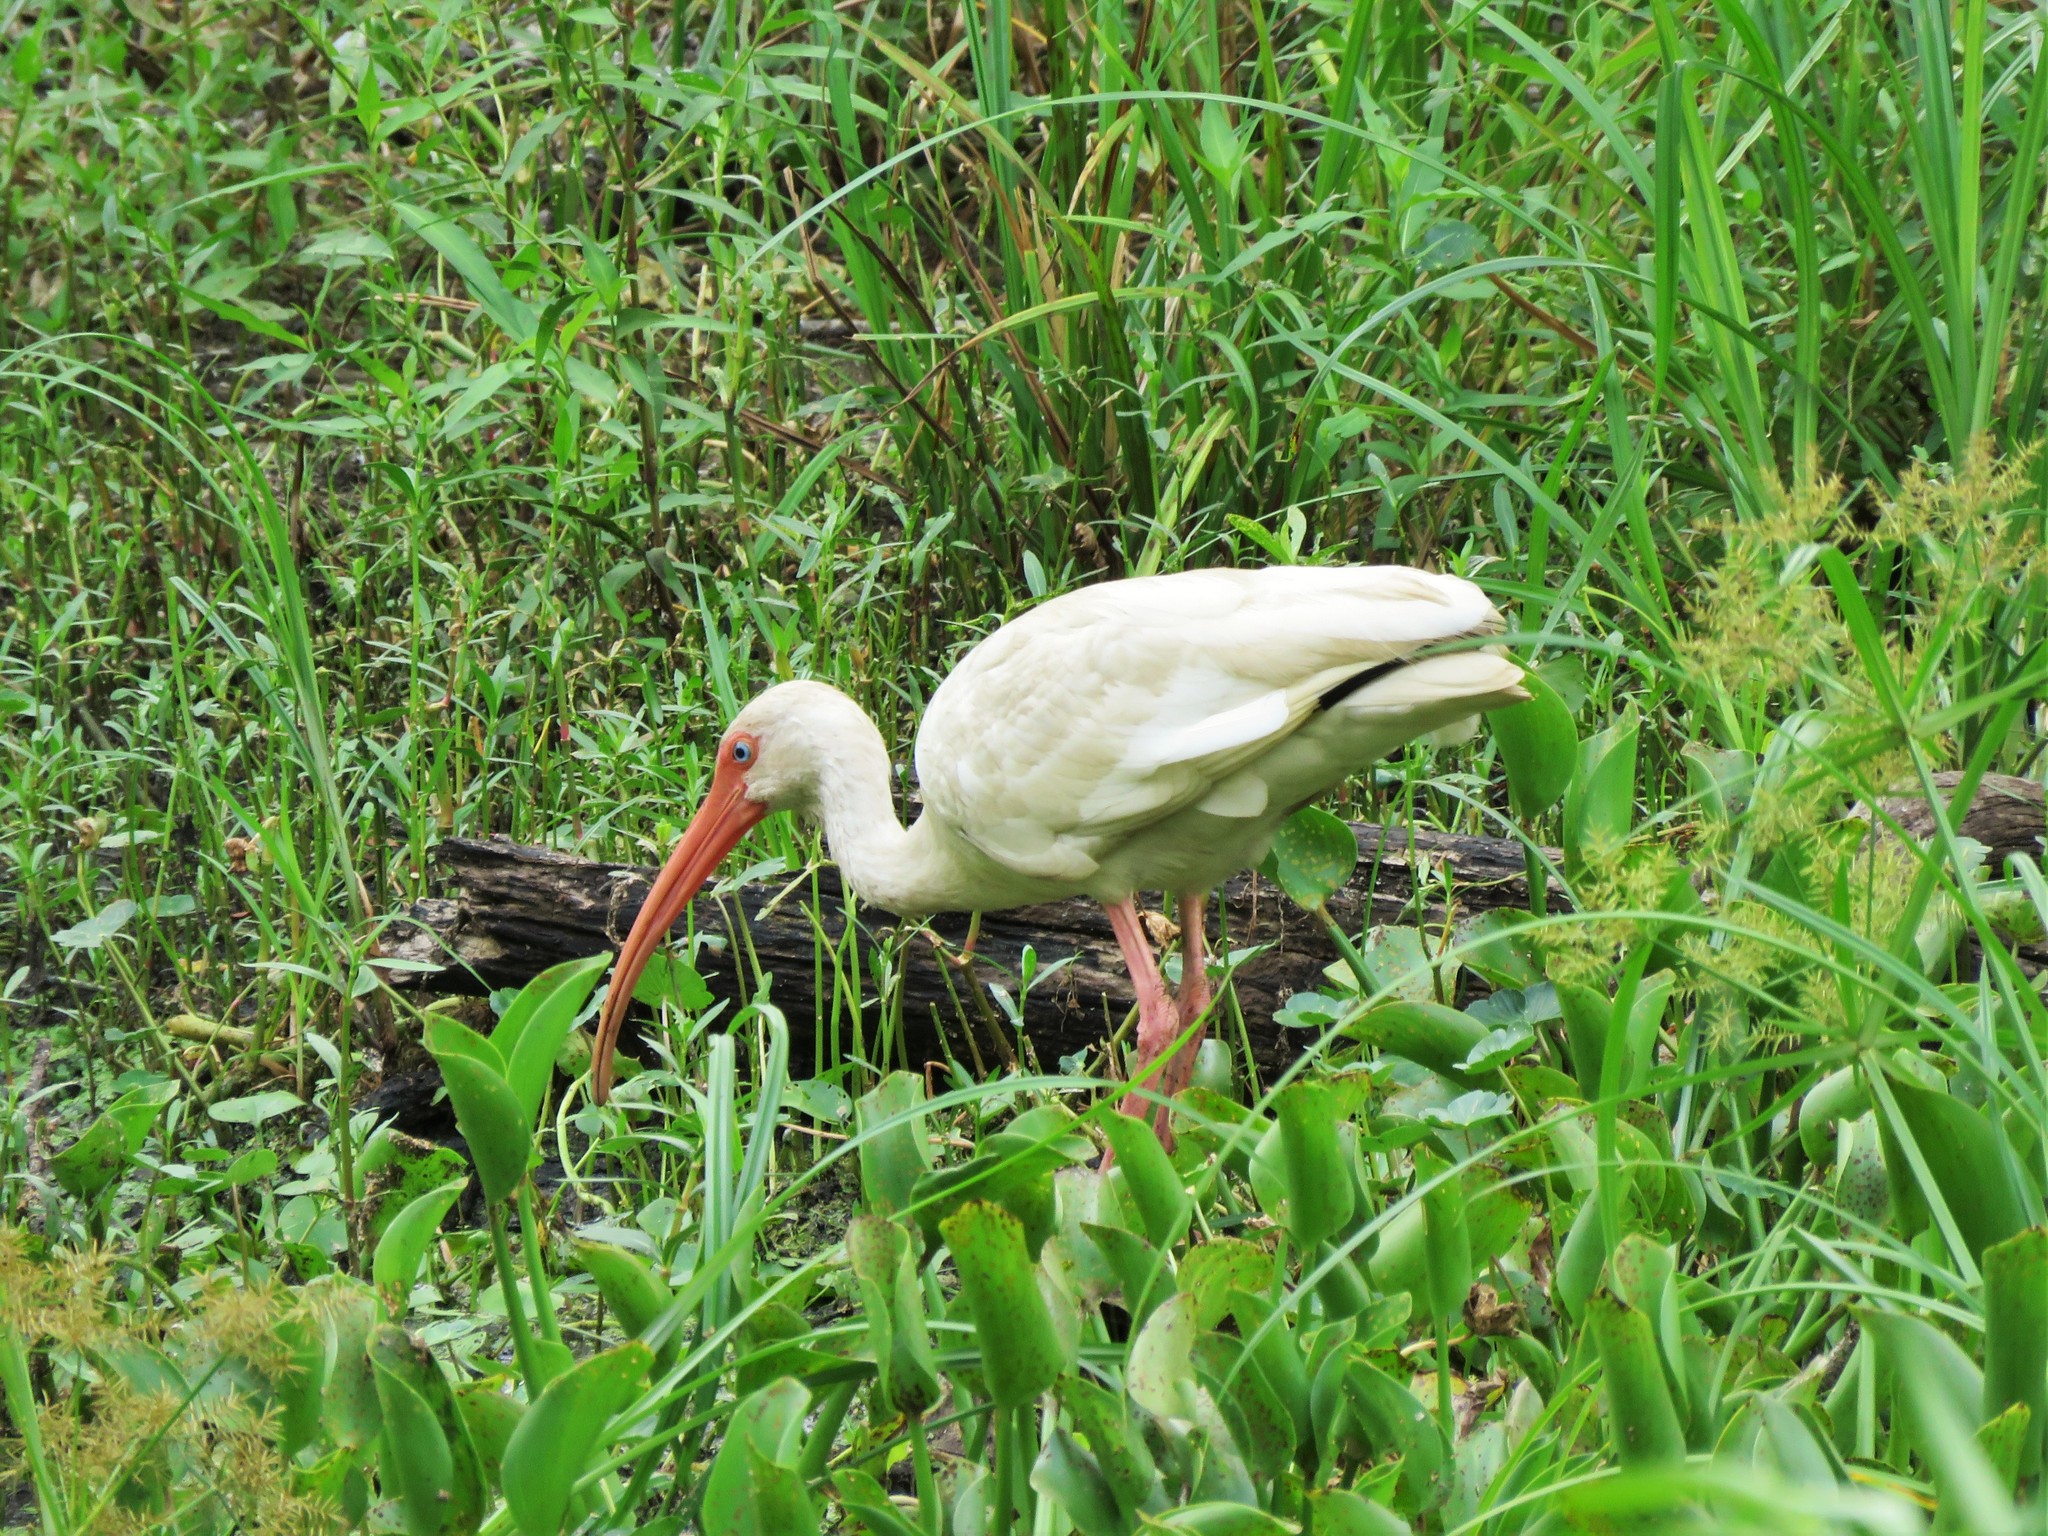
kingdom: Animalia
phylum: Chordata
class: Aves
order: Pelecaniformes
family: Threskiornithidae
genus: Eudocimus
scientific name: Eudocimus albus
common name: White ibis
